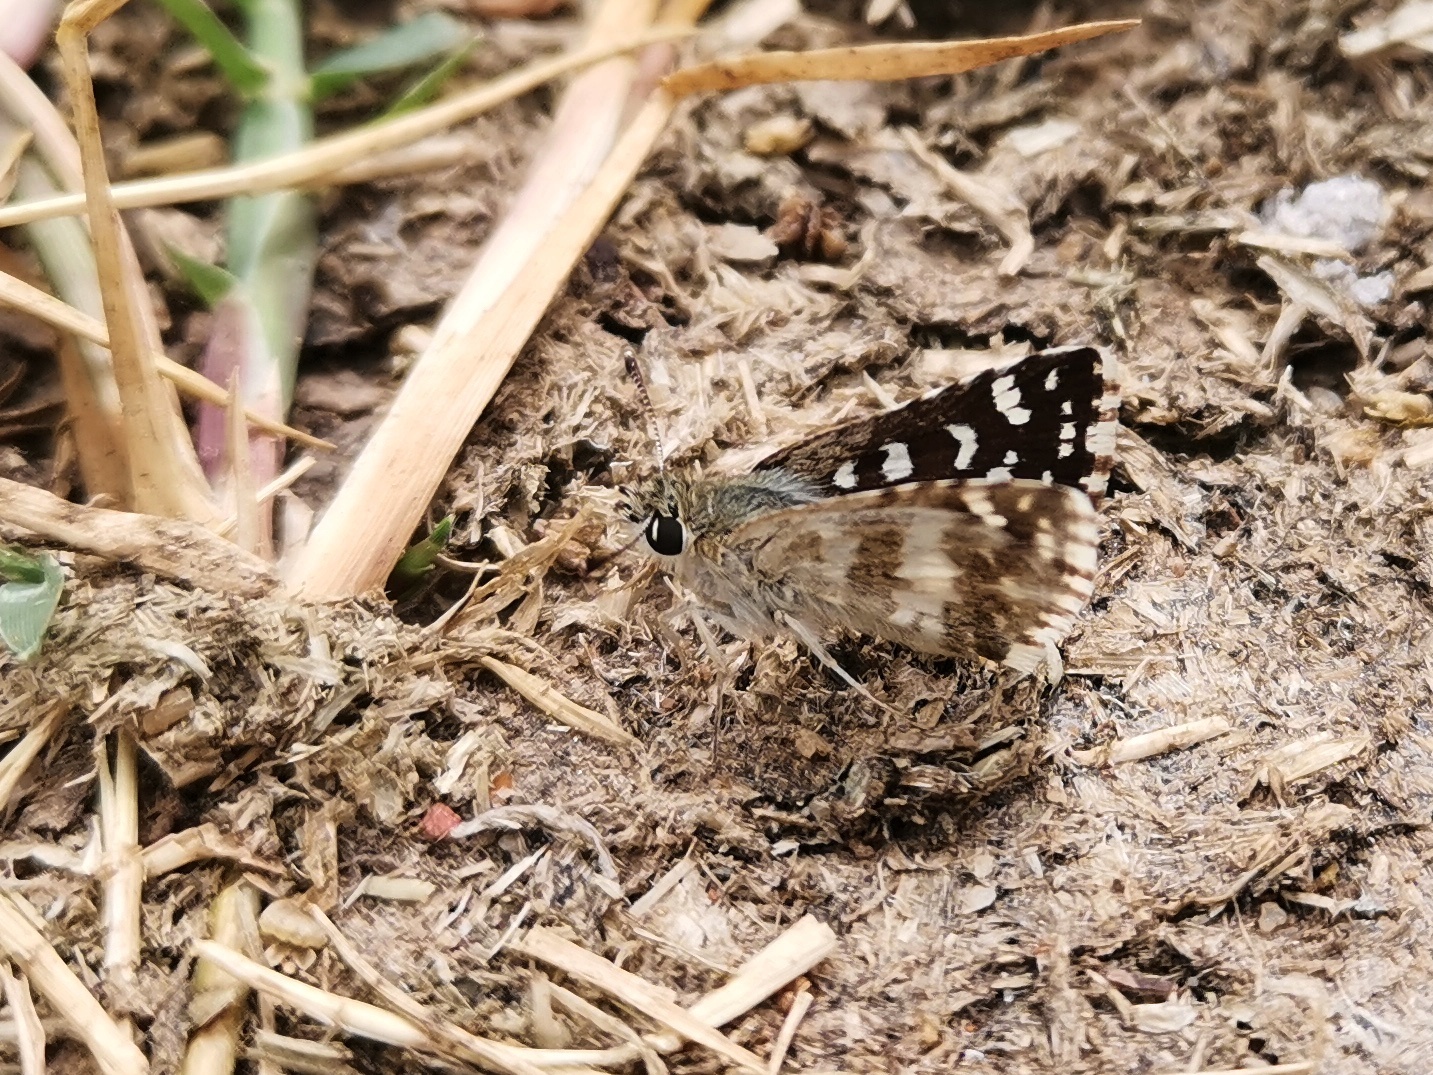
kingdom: Animalia
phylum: Arthropoda
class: Insecta
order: Lepidoptera
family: Hesperiidae
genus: Spialia
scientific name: Spialia galba
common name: Indian skipper
